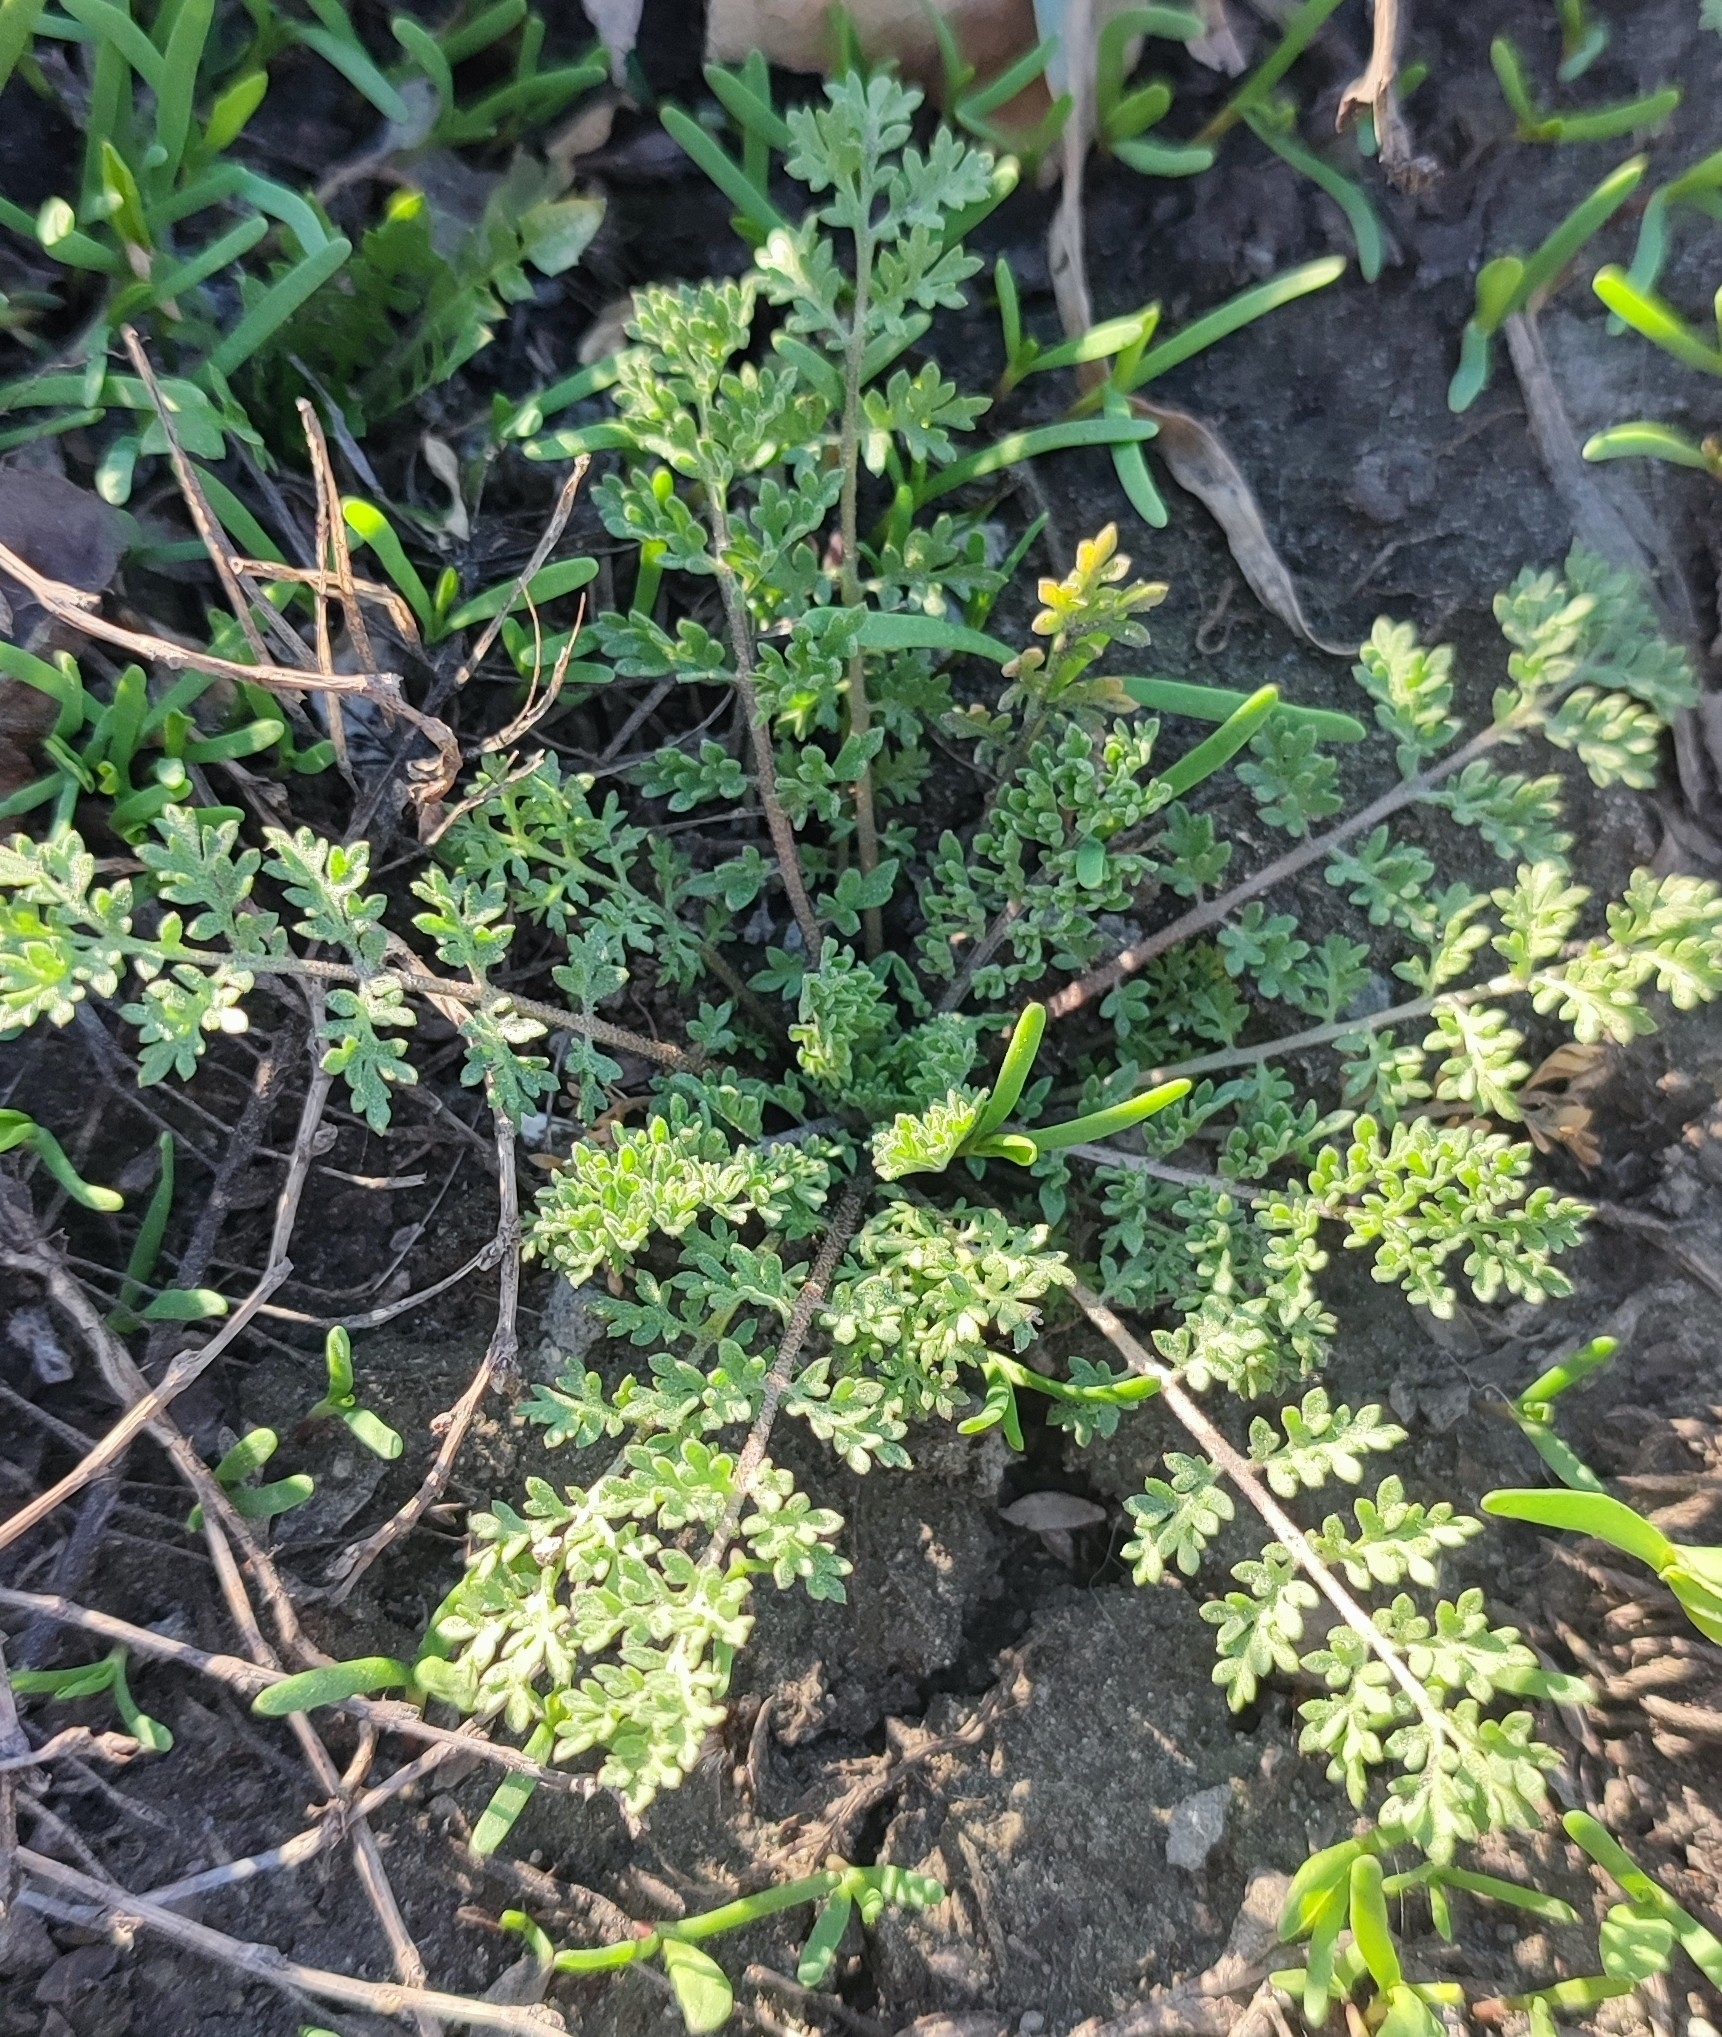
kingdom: Plantae
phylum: Tracheophyta
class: Magnoliopsida
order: Brassicales
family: Brassicaceae
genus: Descurainia
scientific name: Descurainia sophia
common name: Flixweed
